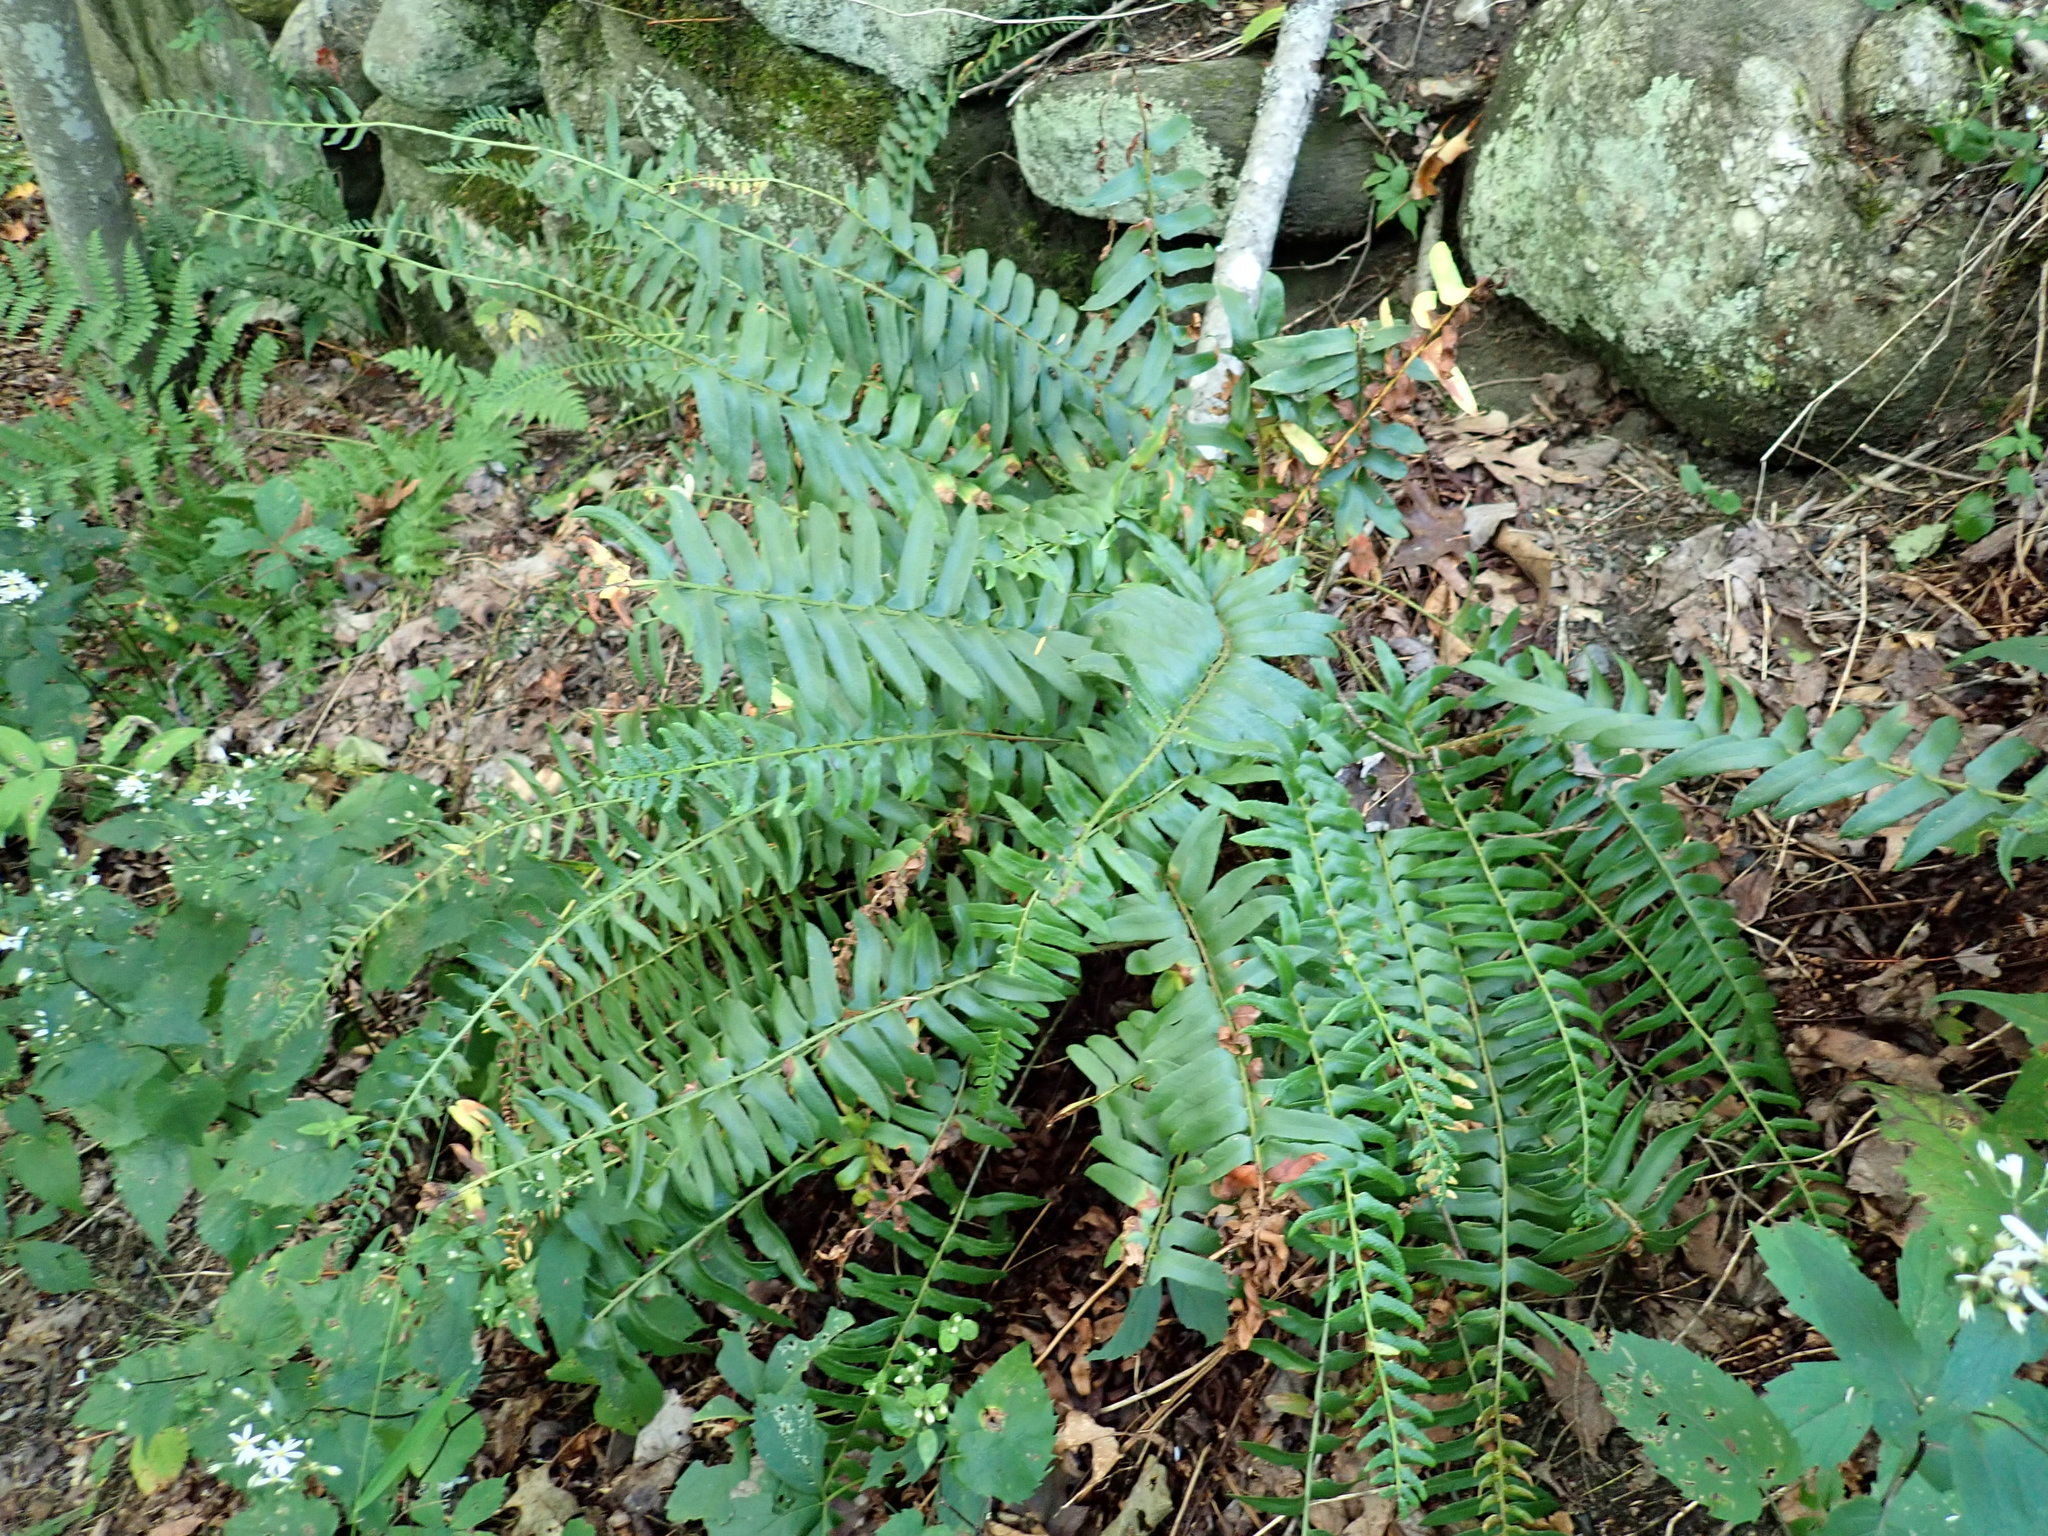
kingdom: Plantae
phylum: Tracheophyta
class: Polypodiopsida
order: Polypodiales
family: Dryopteridaceae
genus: Polystichum
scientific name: Polystichum acrostichoides
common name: Christmas fern
